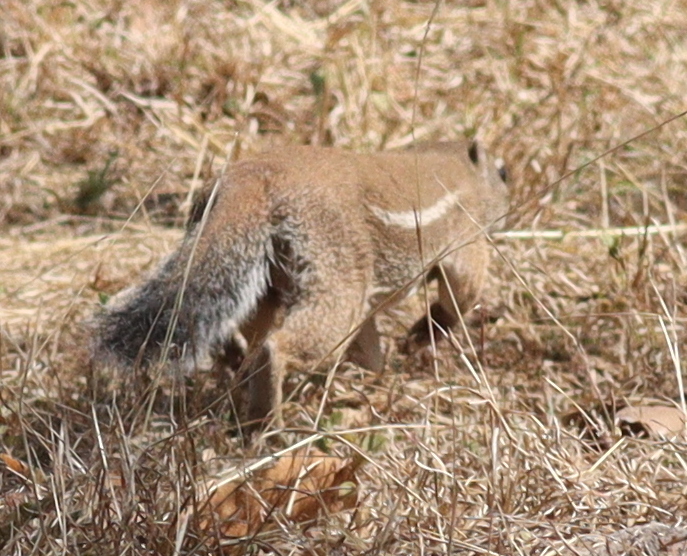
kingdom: Animalia
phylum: Chordata
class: Mammalia
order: Rodentia
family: Sciuridae
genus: Xerus
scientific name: Xerus erythropus
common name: Striped ground squirrel
